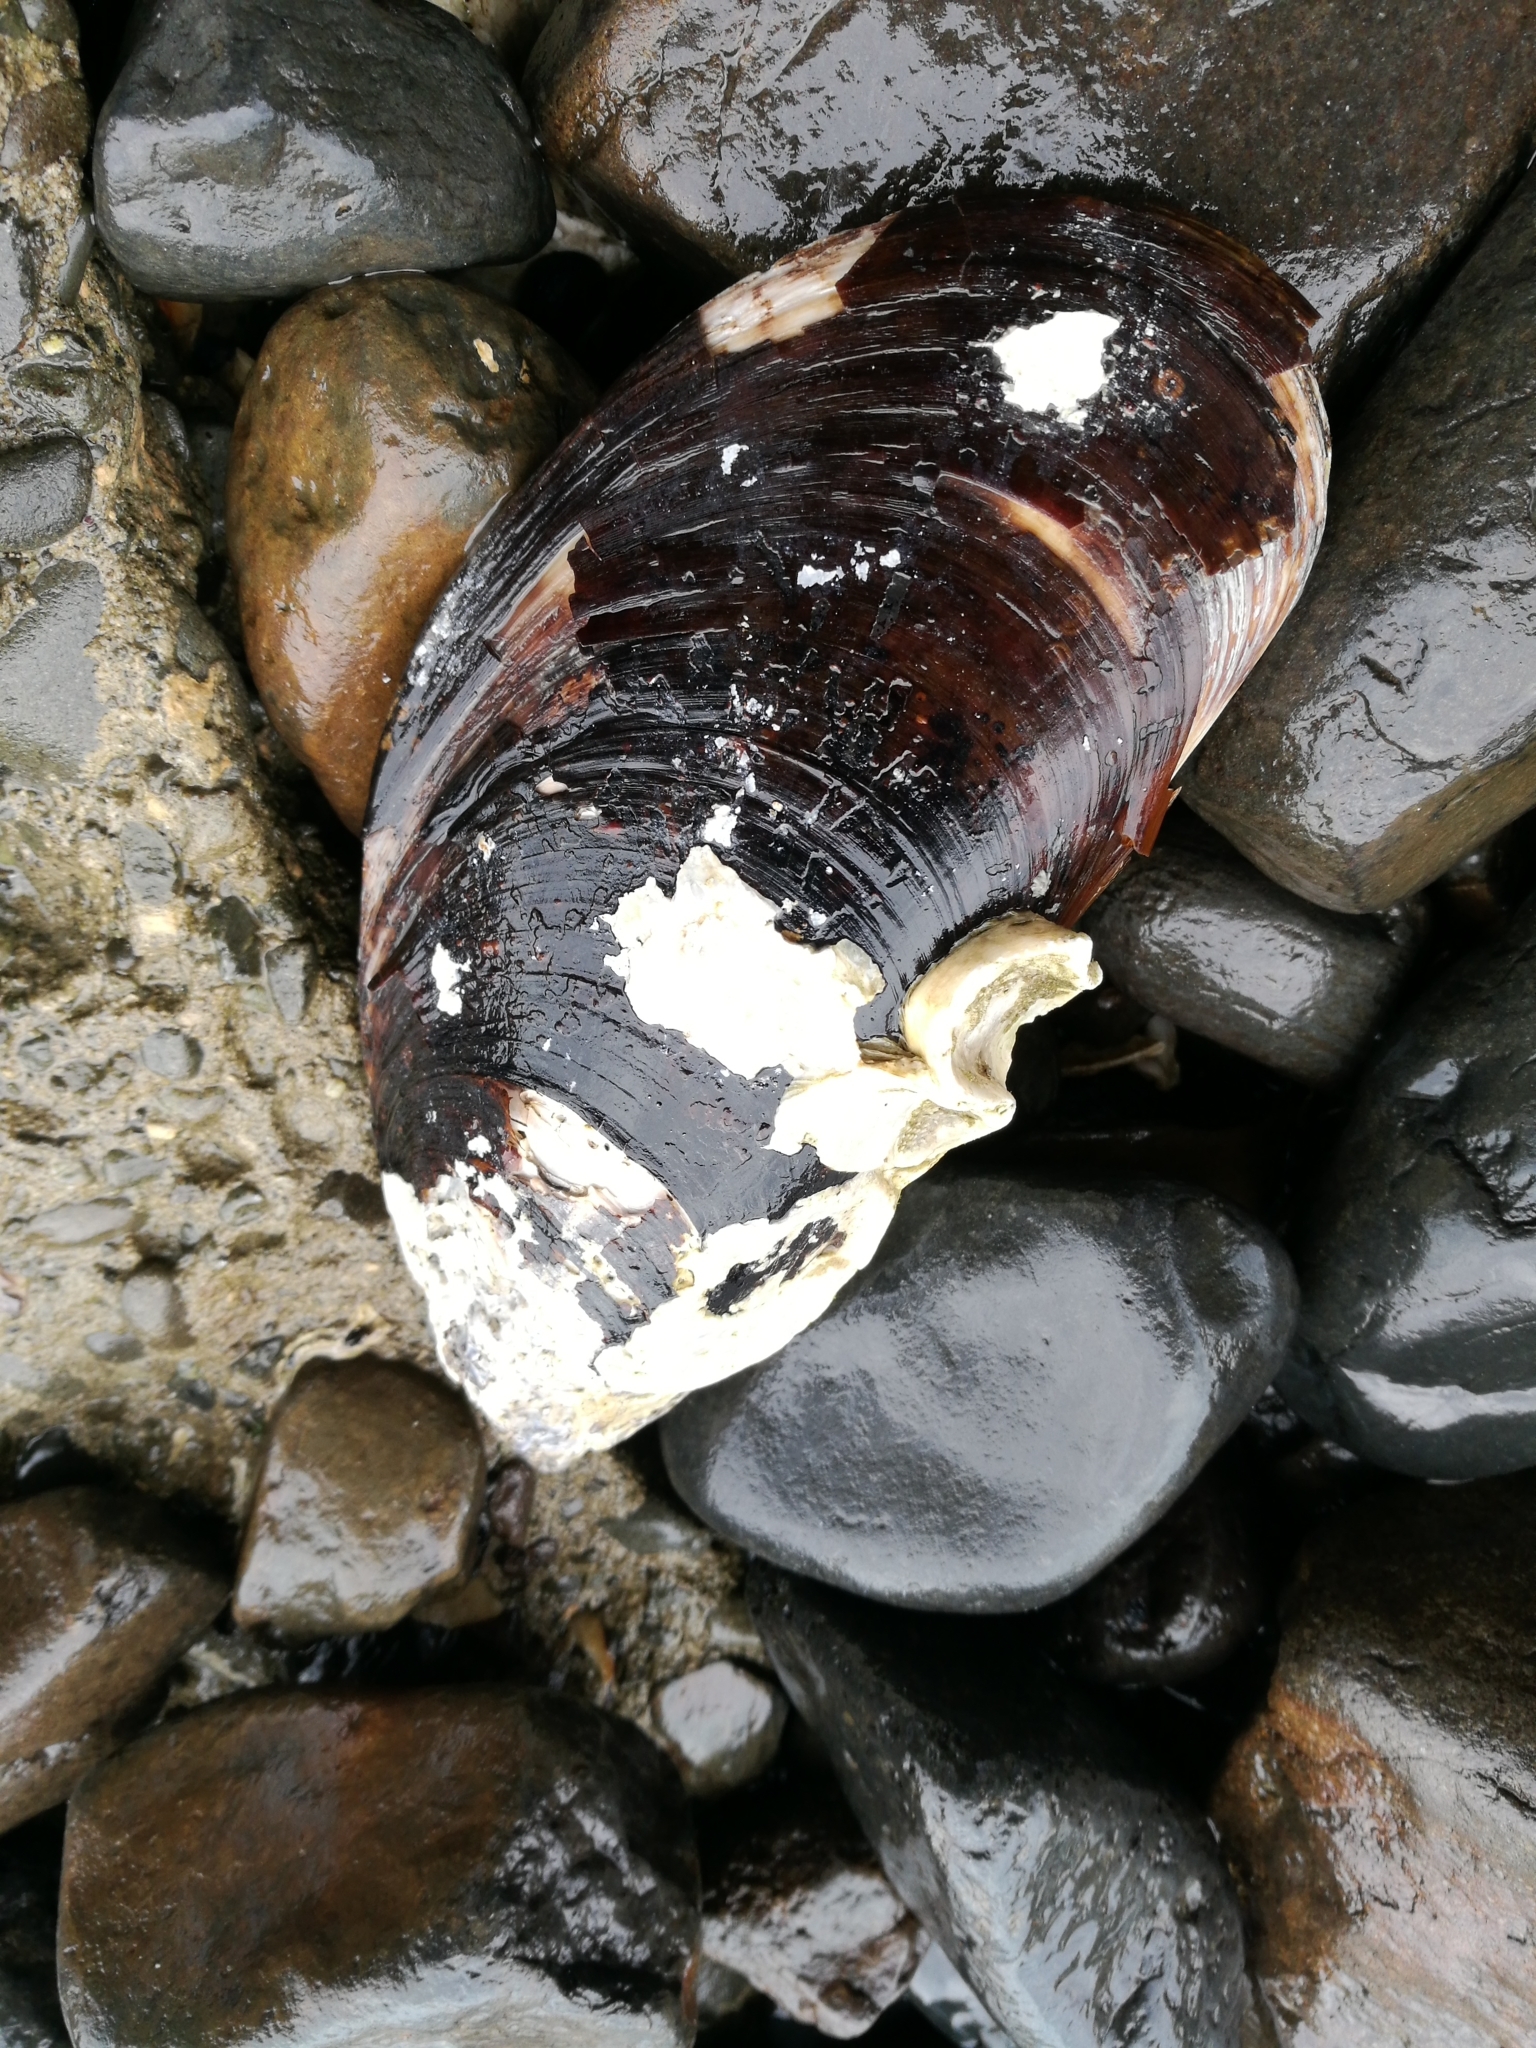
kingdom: Animalia
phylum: Mollusca
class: Bivalvia
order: Mytilida
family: Mytilidae
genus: Perna
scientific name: Perna canaliculus
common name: New zealand greenshelltm
